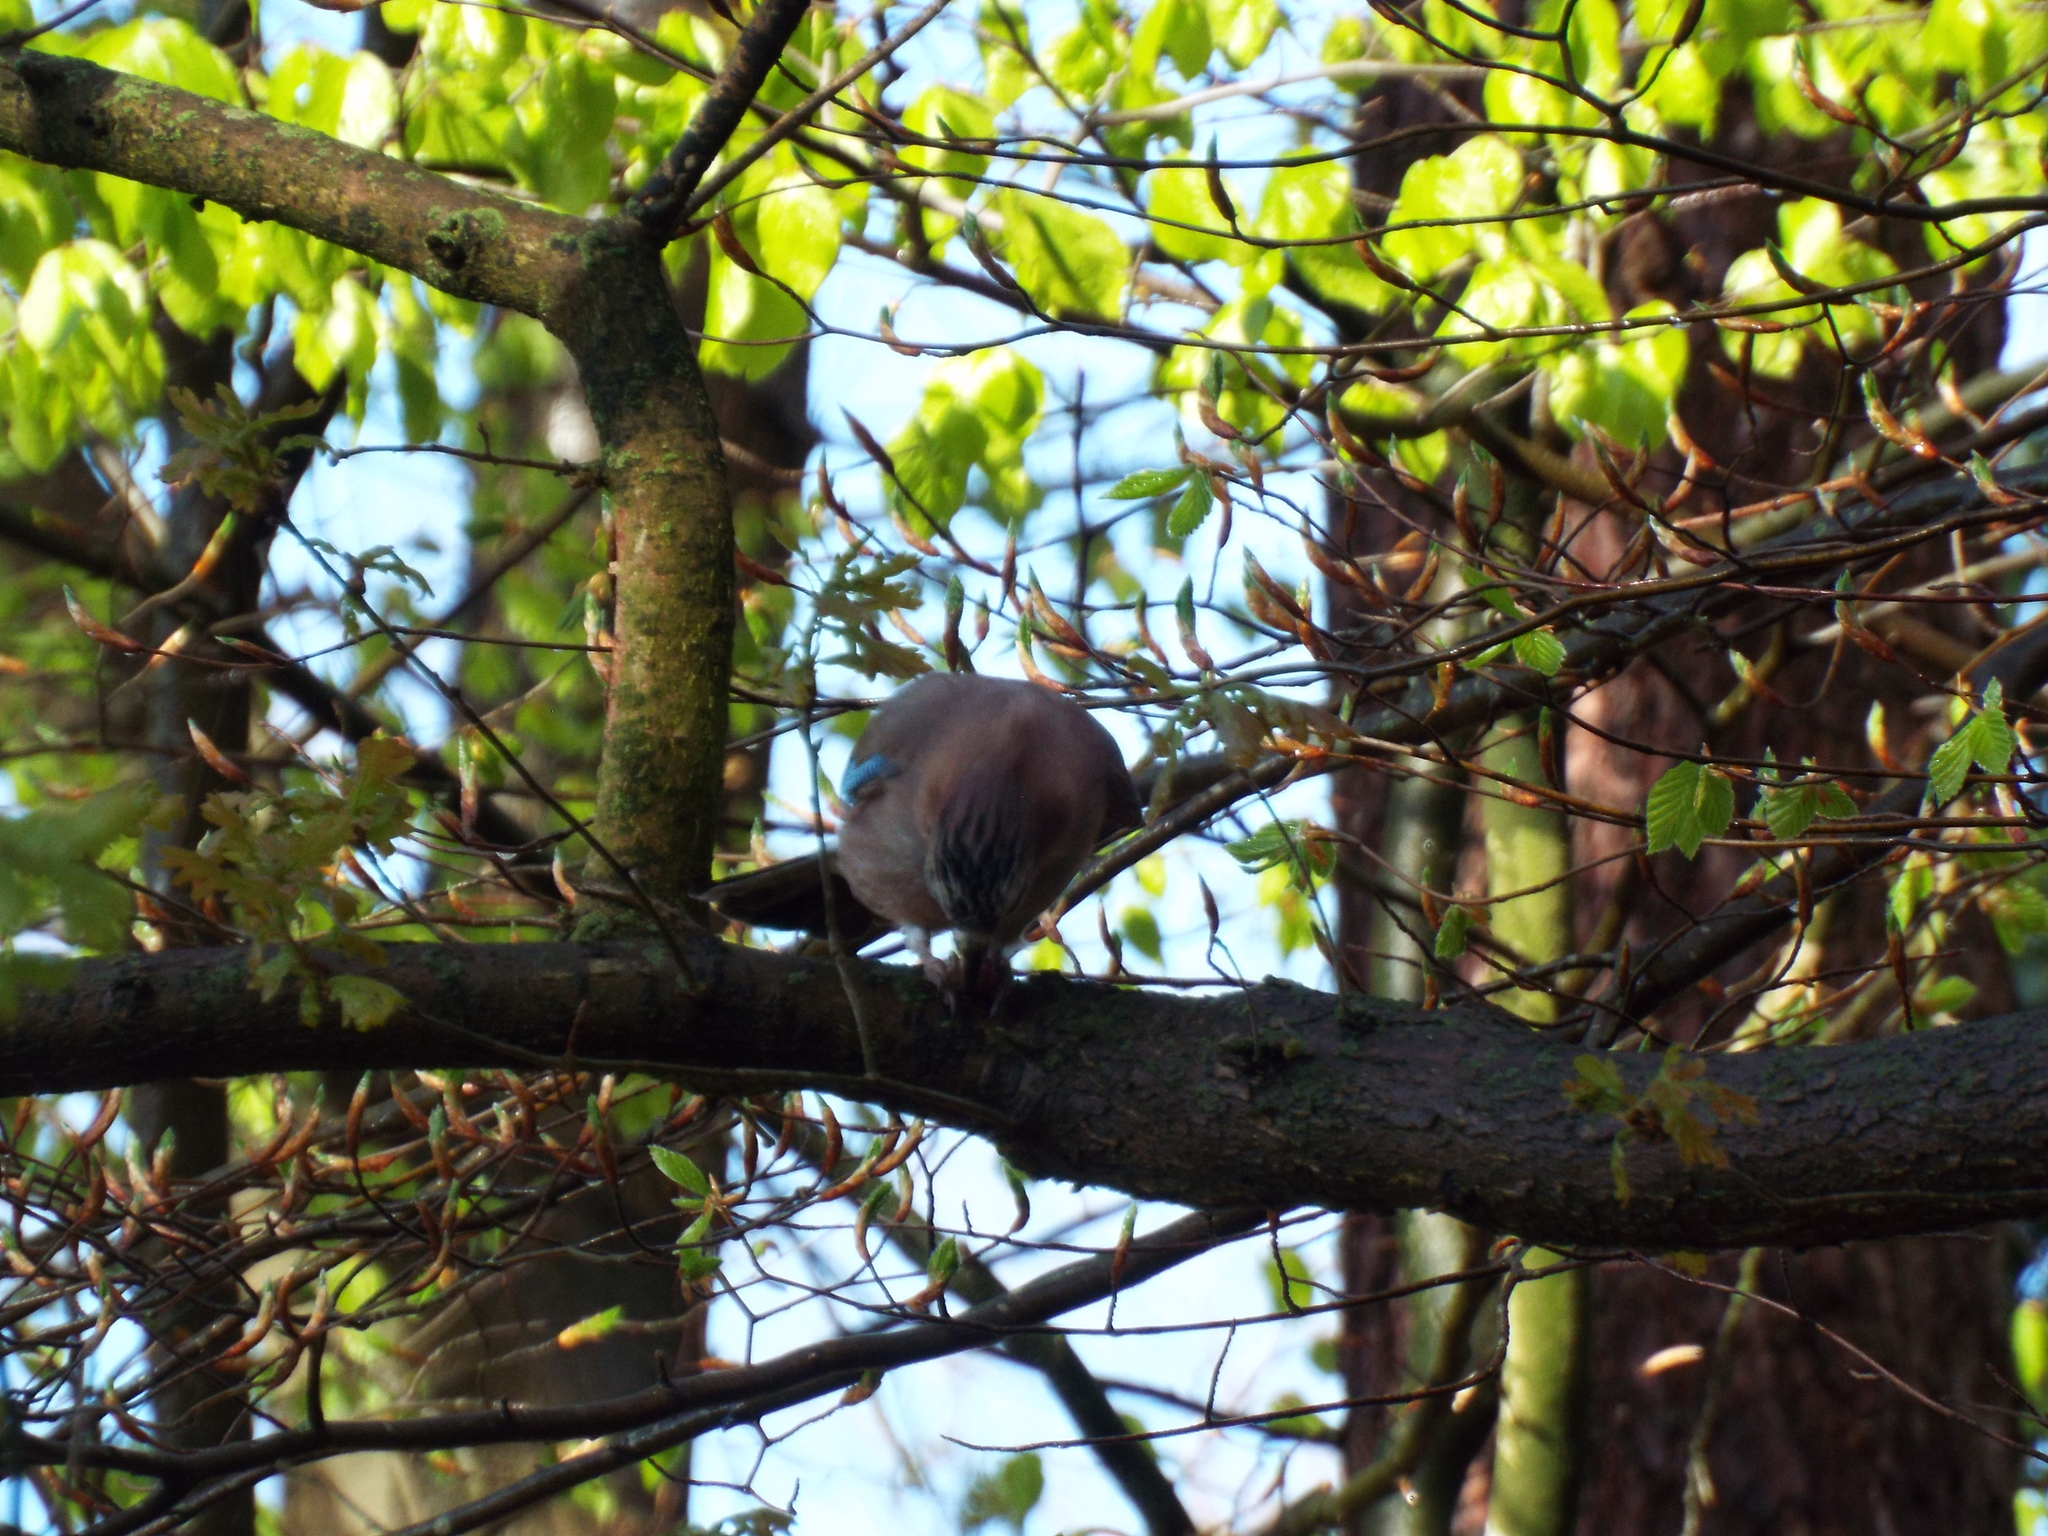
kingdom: Animalia
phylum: Chordata
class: Aves
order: Passeriformes
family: Corvidae
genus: Garrulus
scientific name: Garrulus glandarius
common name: Eurasian jay
